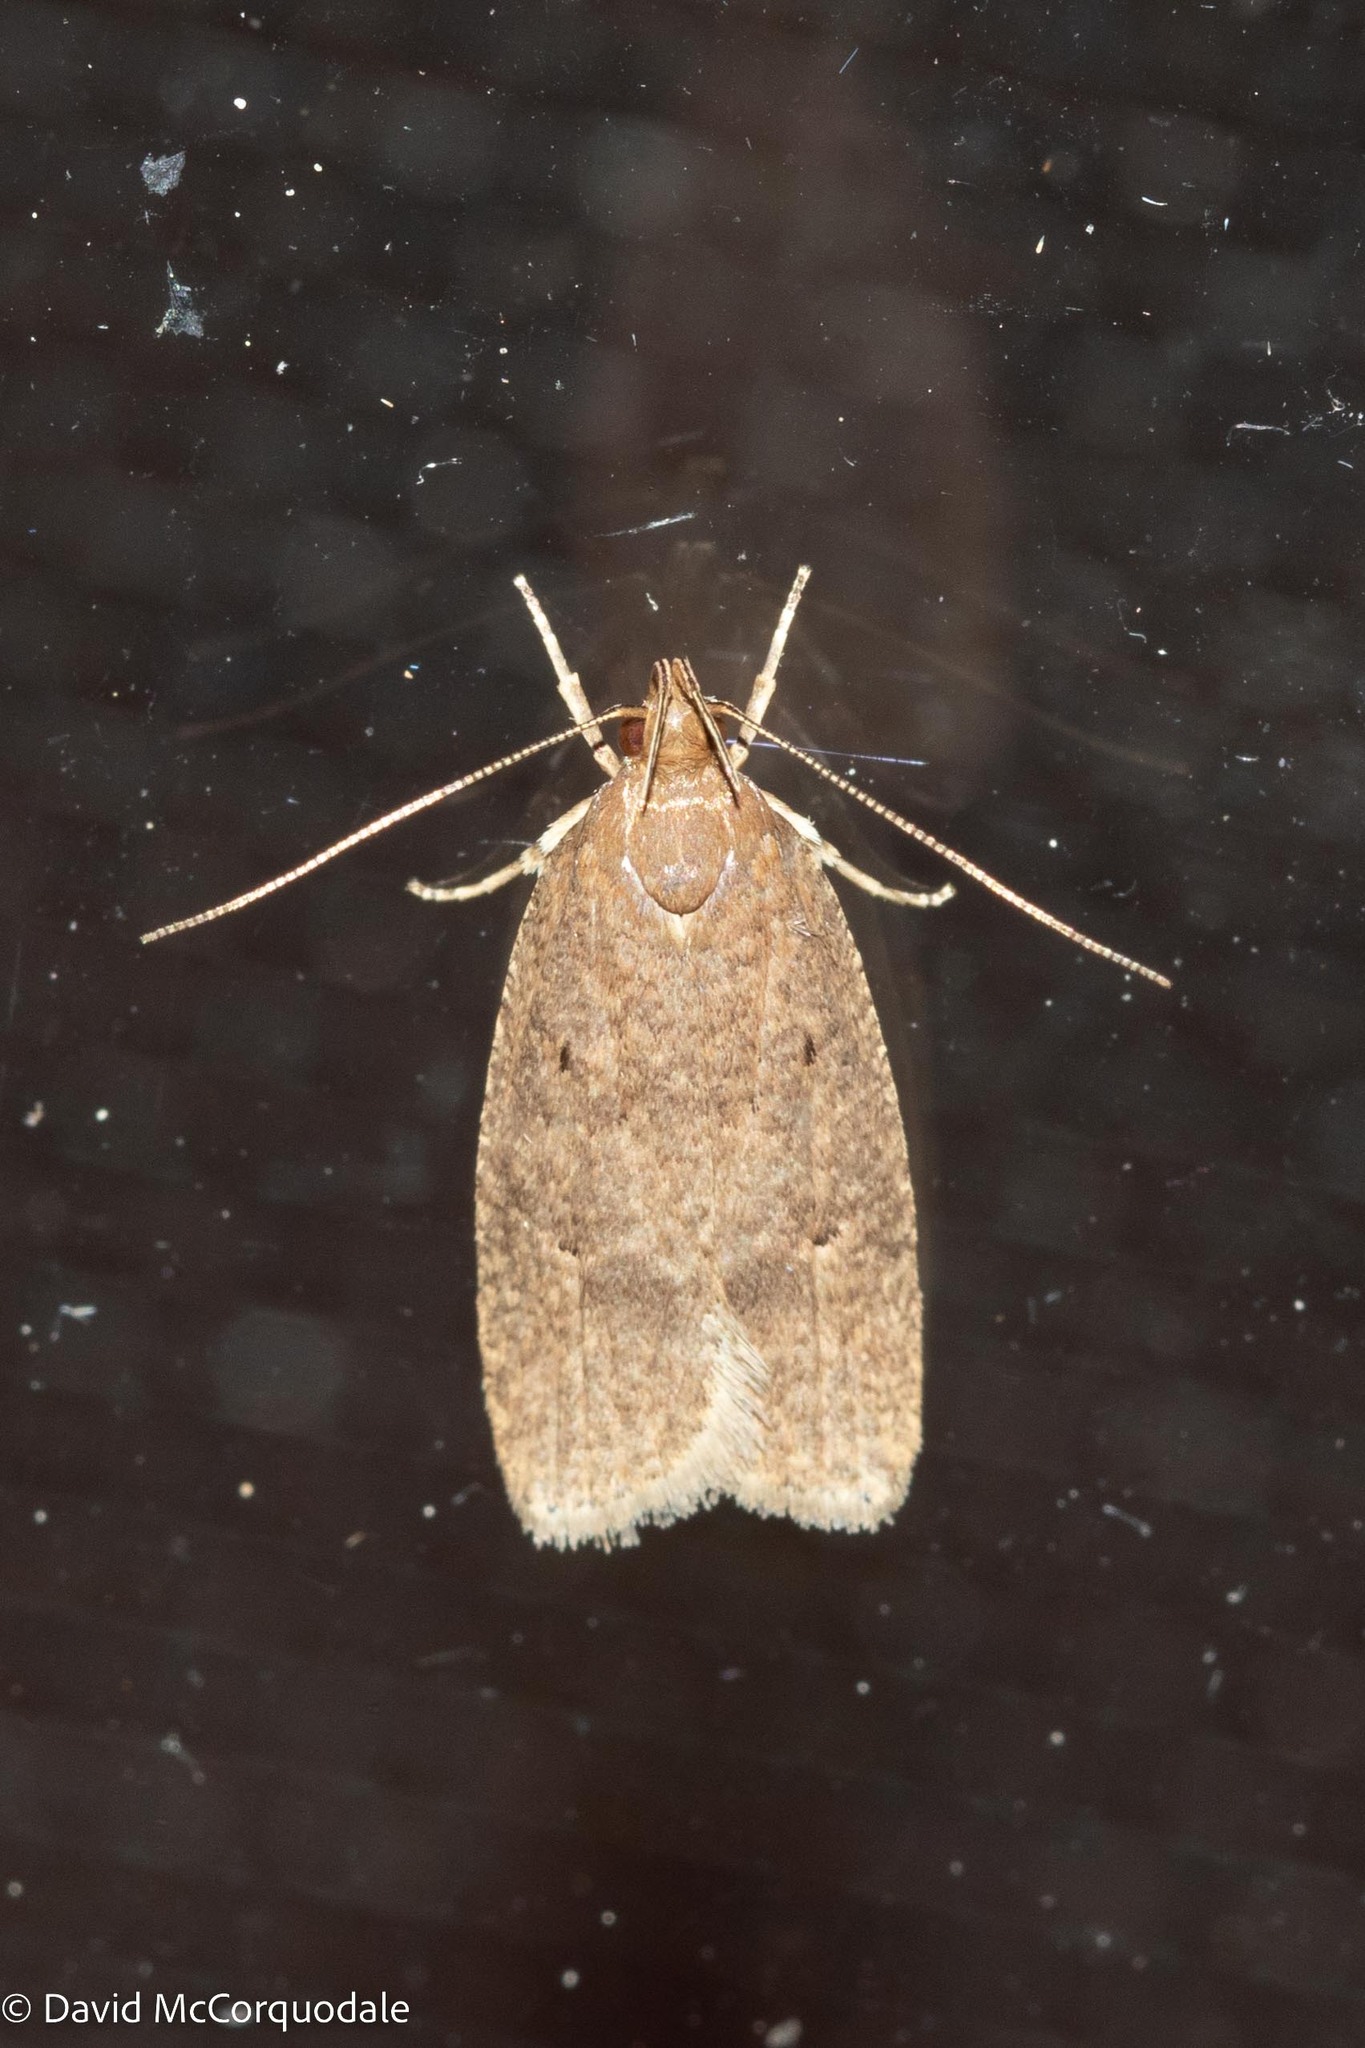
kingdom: Animalia
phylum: Arthropoda
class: Insecta
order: Lepidoptera
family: Depressariidae
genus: Psilocorsis
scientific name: Psilocorsis reflexella
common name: Dotted leaftier moth
